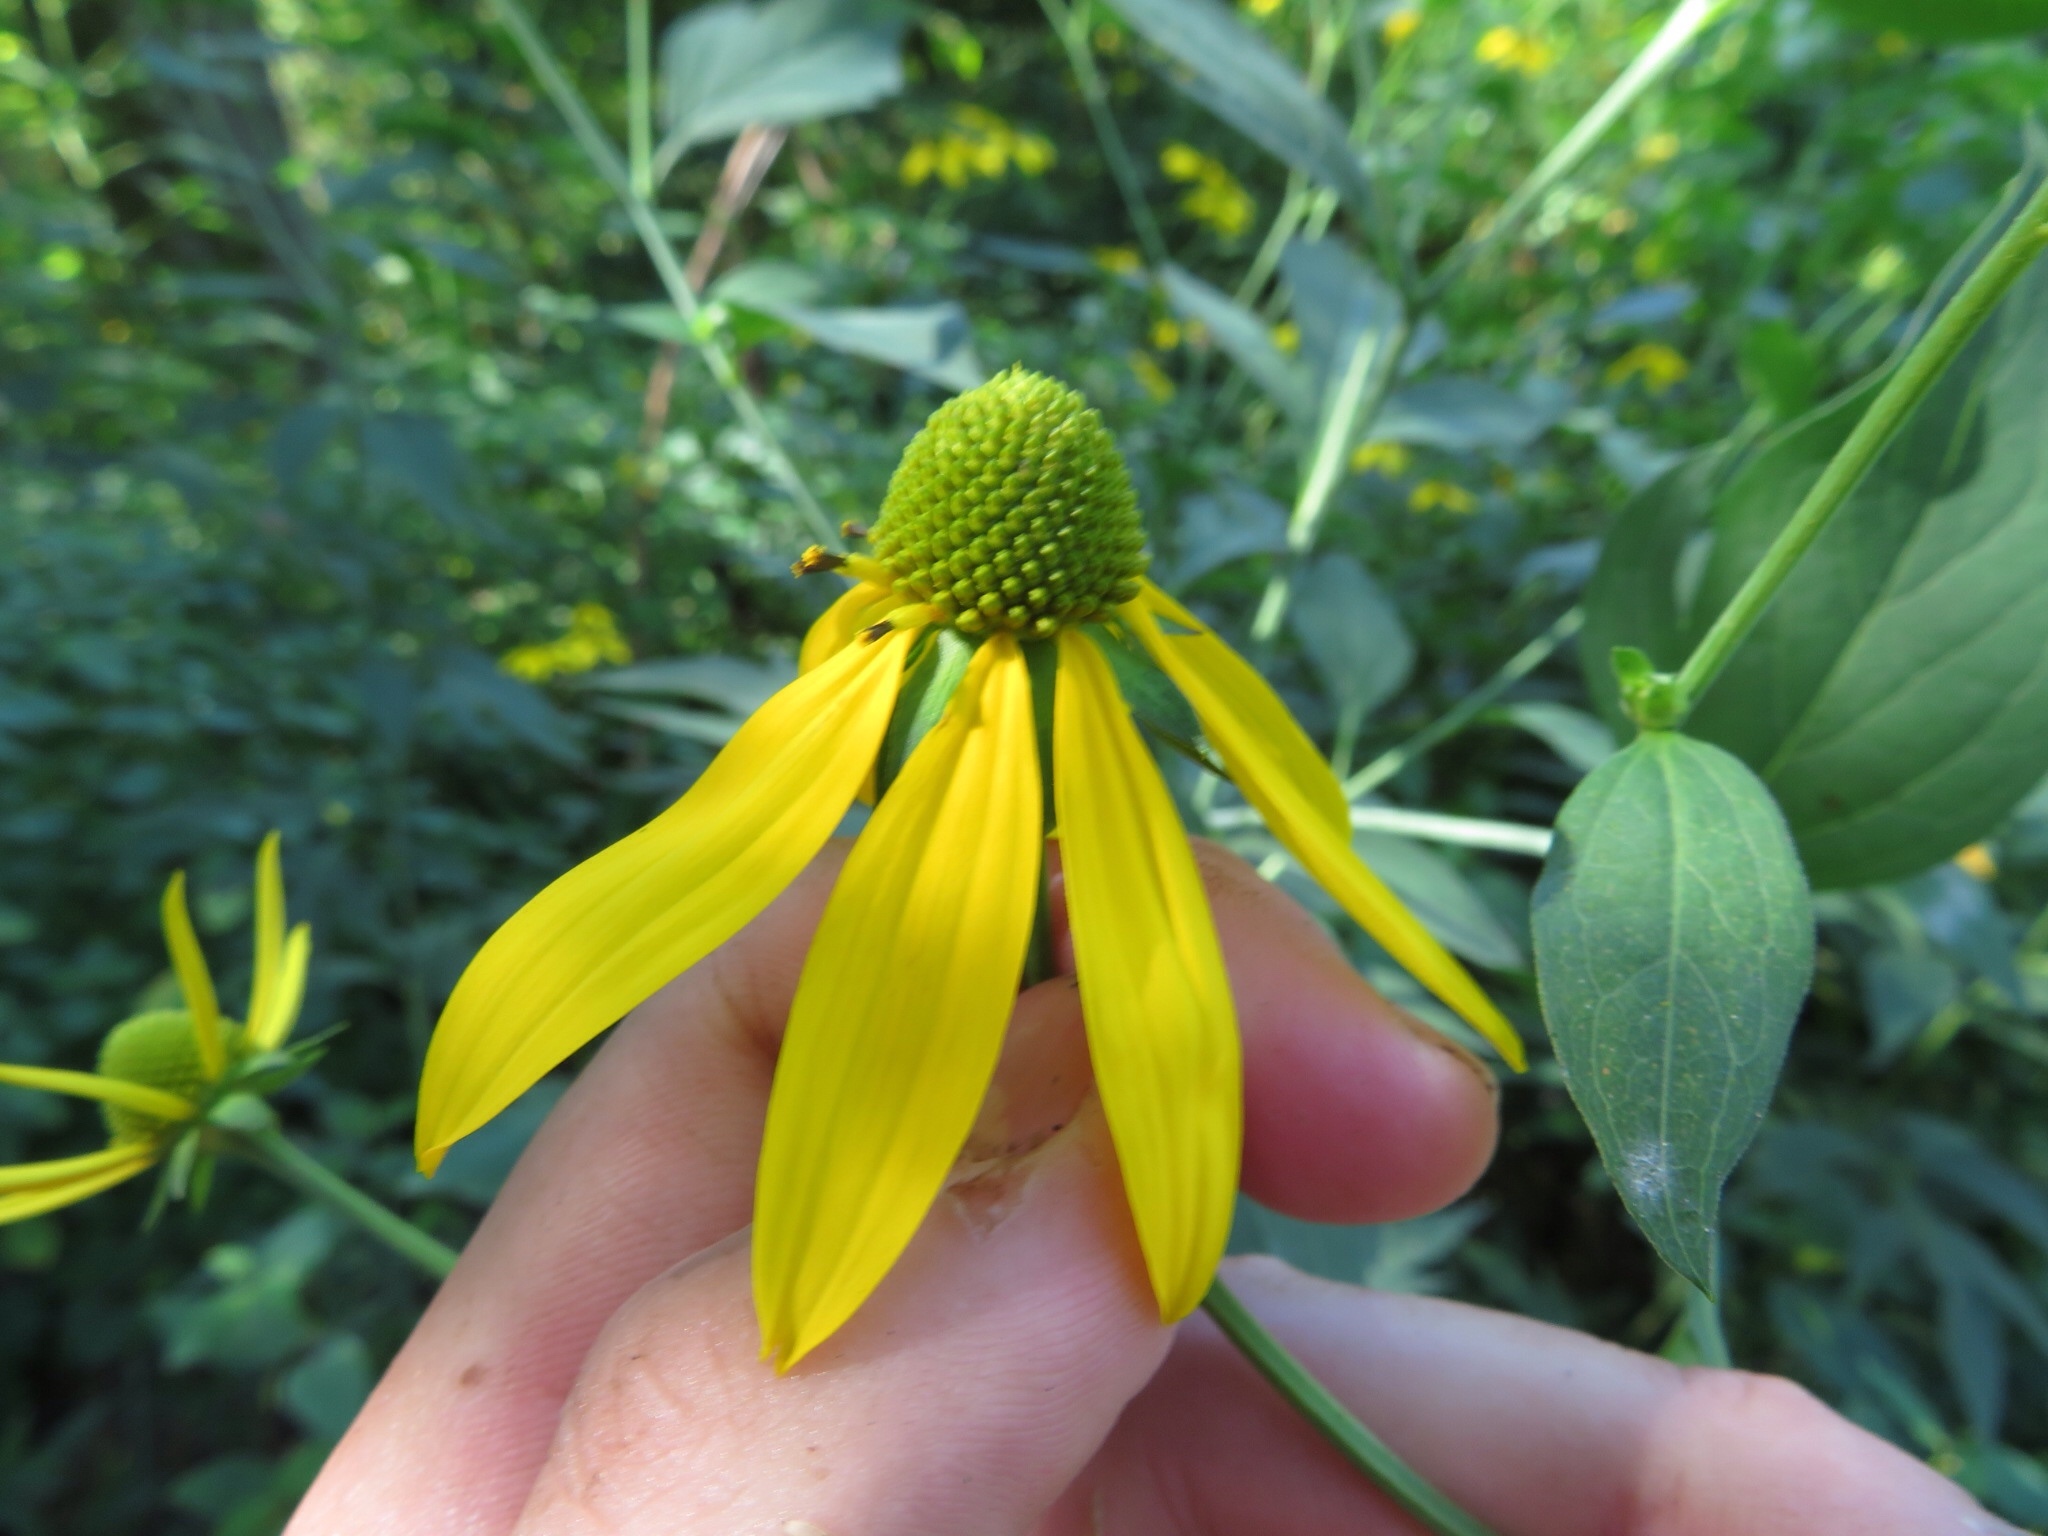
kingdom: Plantae
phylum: Tracheophyta
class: Magnoliopsida
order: Asterales
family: Asteraceae
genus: Rudbeckia
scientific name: Rudbeckia laciniata
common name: Coneflower
